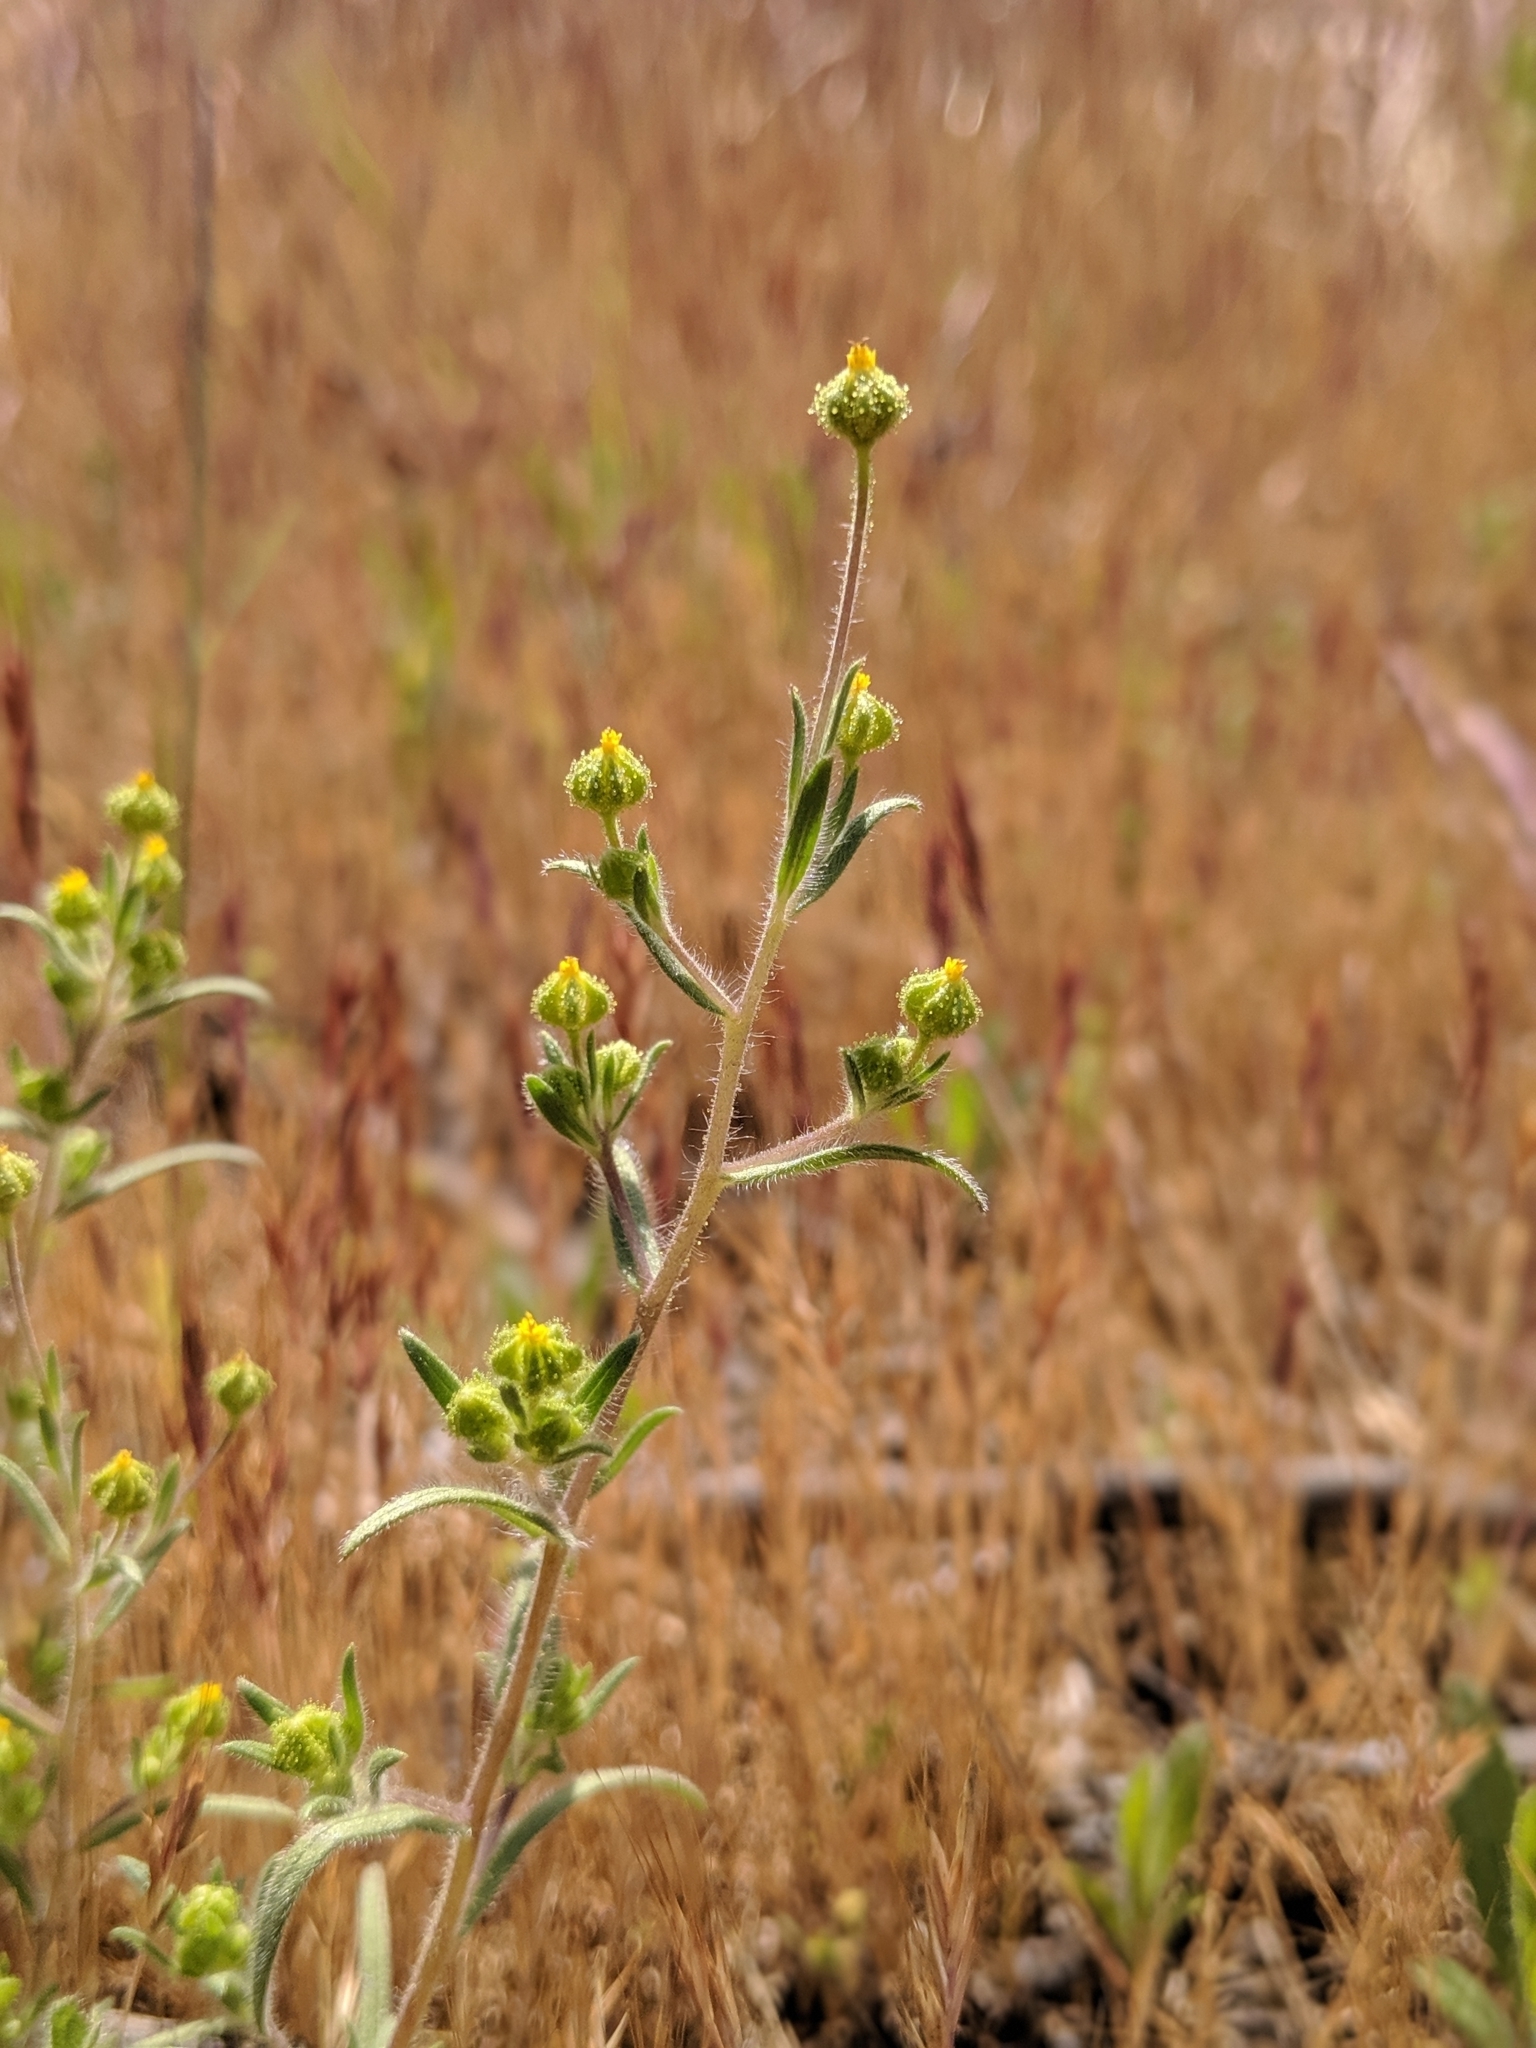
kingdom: Plantae
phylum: Tracheophyta
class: Magnoliopsida
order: Asterales
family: Asteraceae
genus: Madia
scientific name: Madia exigua
